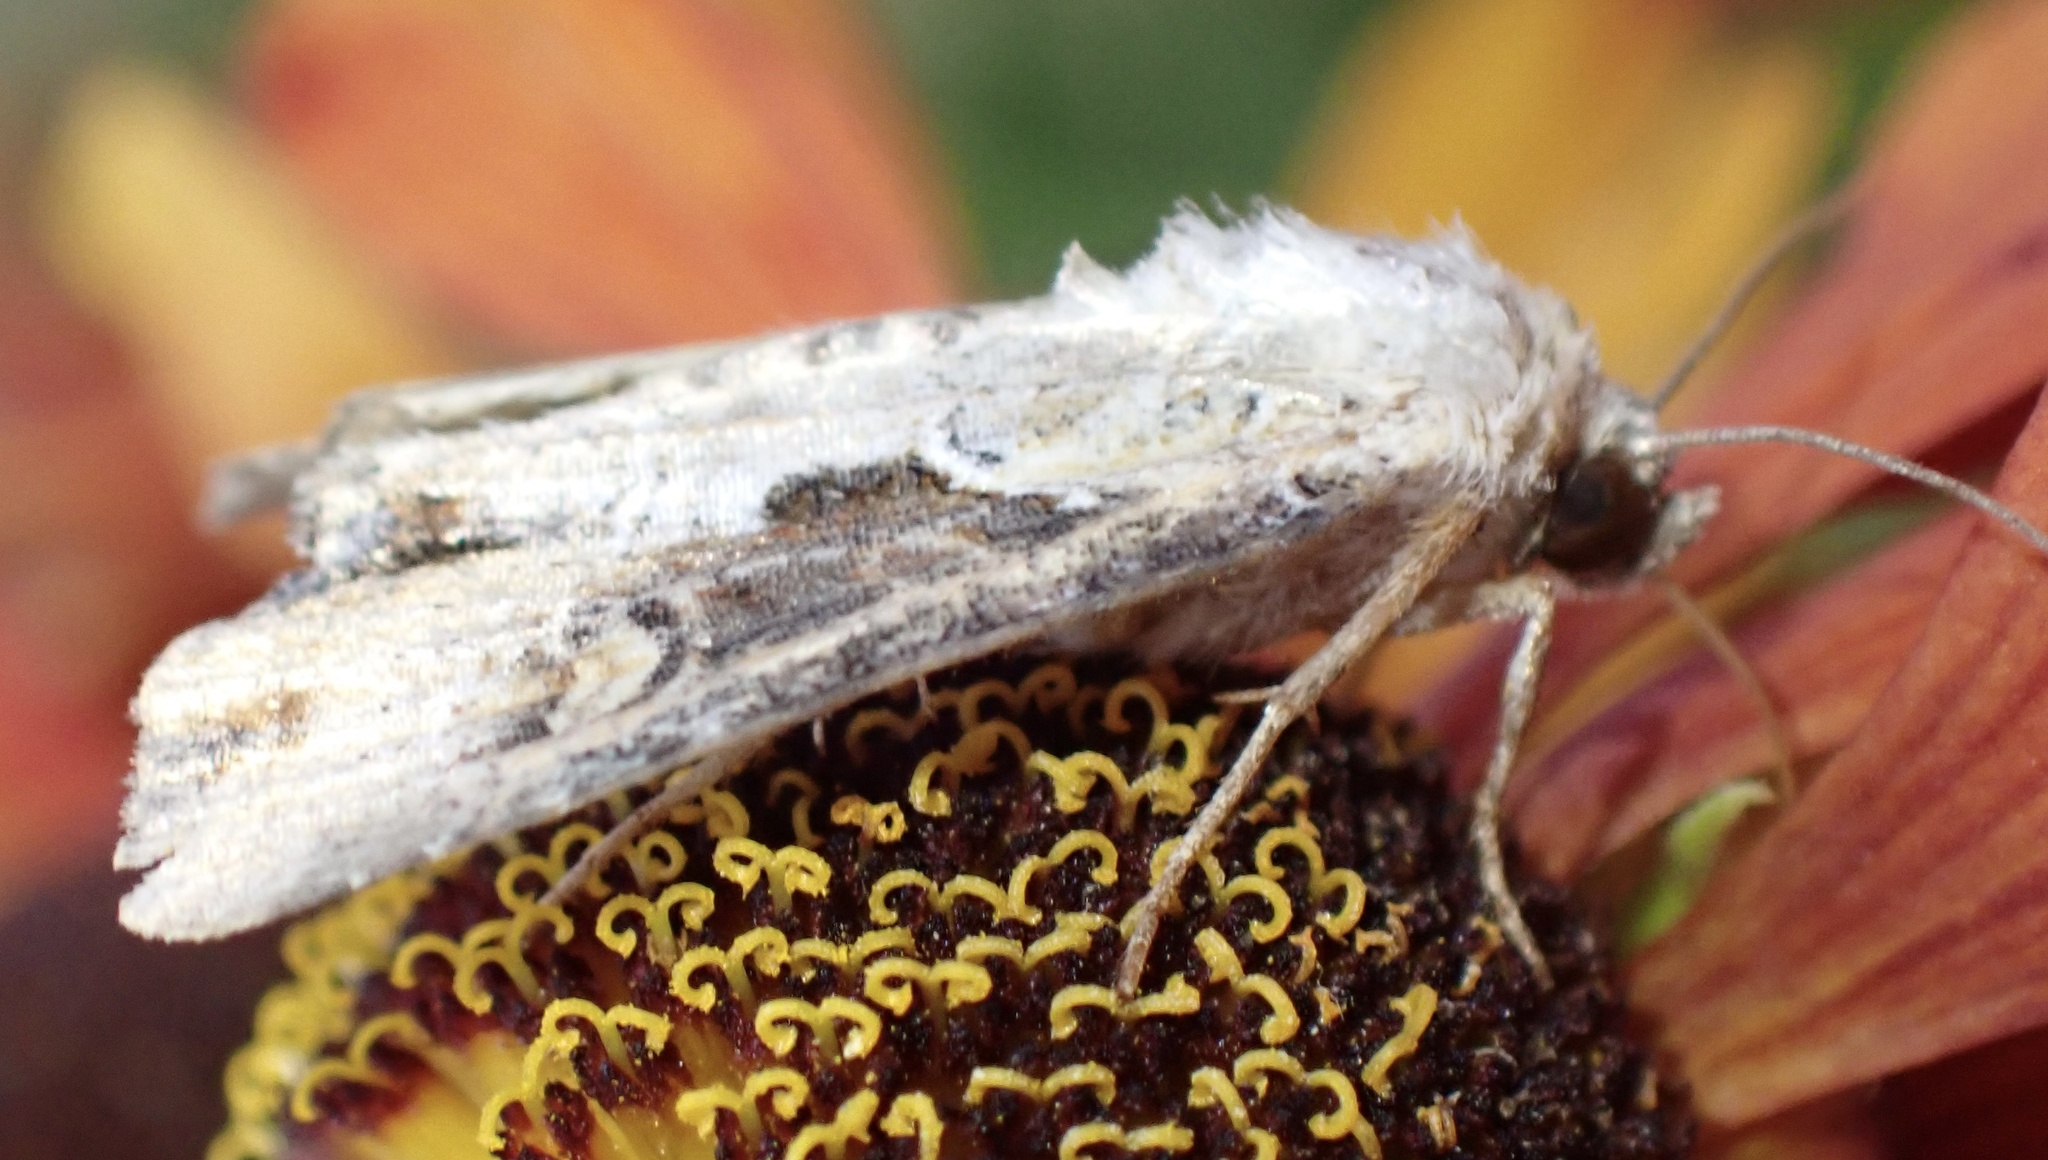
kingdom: Animalia
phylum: Arthropoda
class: Insecta
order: Lepidoptera
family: Noctuidae
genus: Lateroligia
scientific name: Lateroligia ophiogramma
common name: Double lobed
